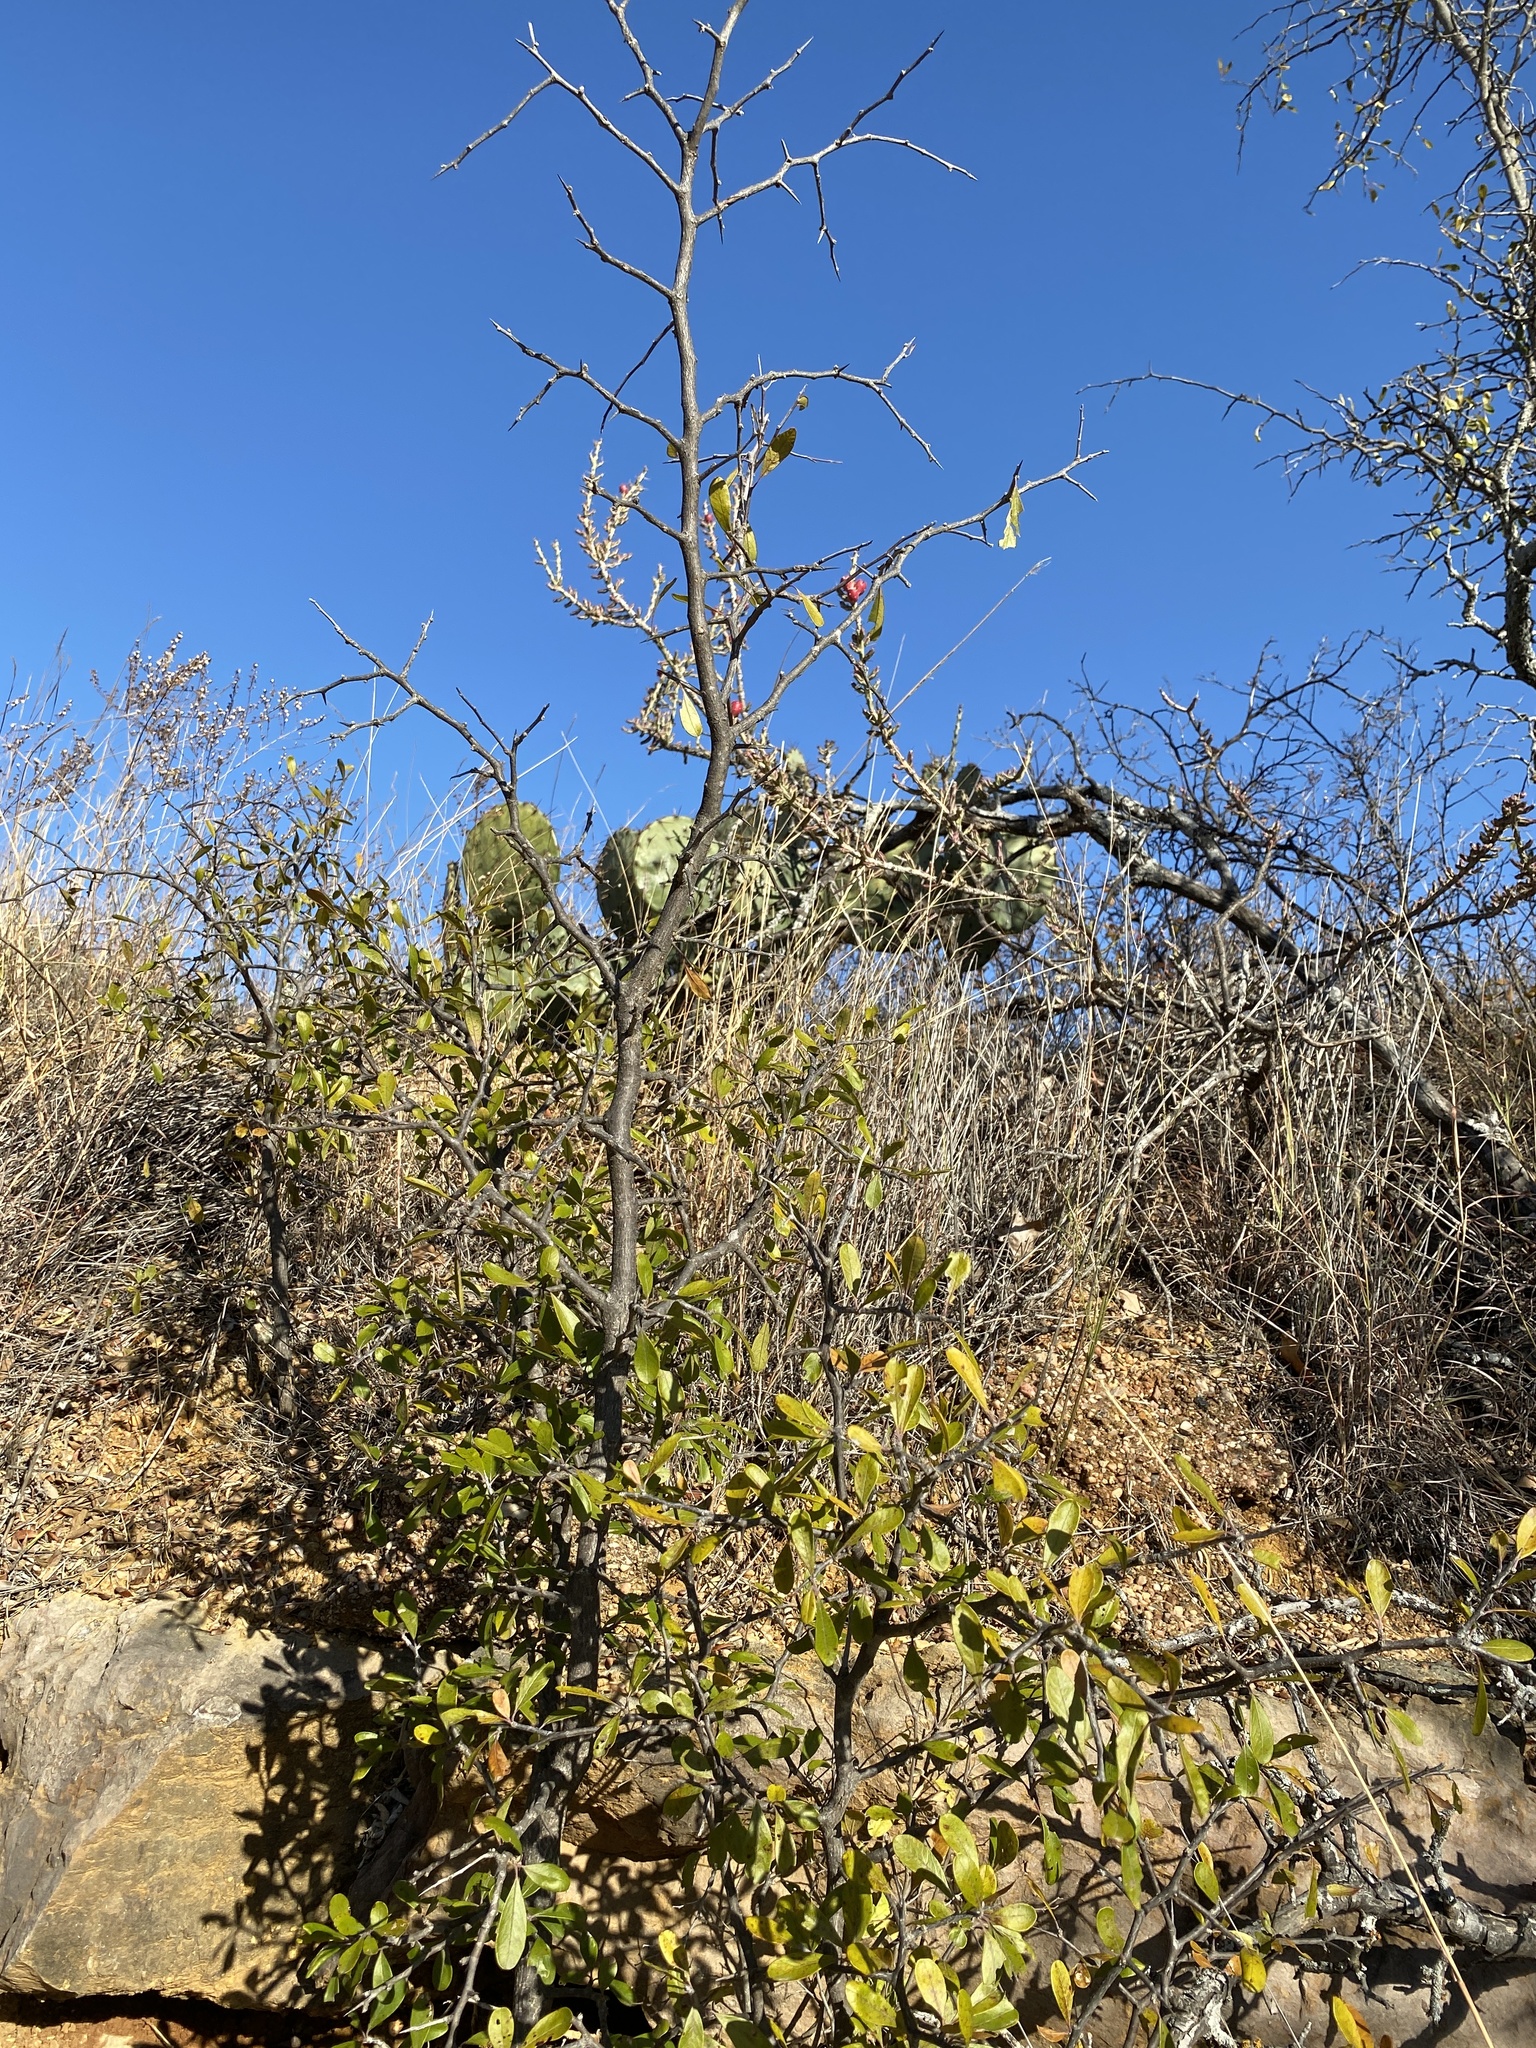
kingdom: Plantae
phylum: Tracheophyta
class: Magnoliopsida
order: Ericales
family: Sapotaceae
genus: Sideroxylon
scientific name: Sideroxylon lanuginosum
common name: Chittamwood
